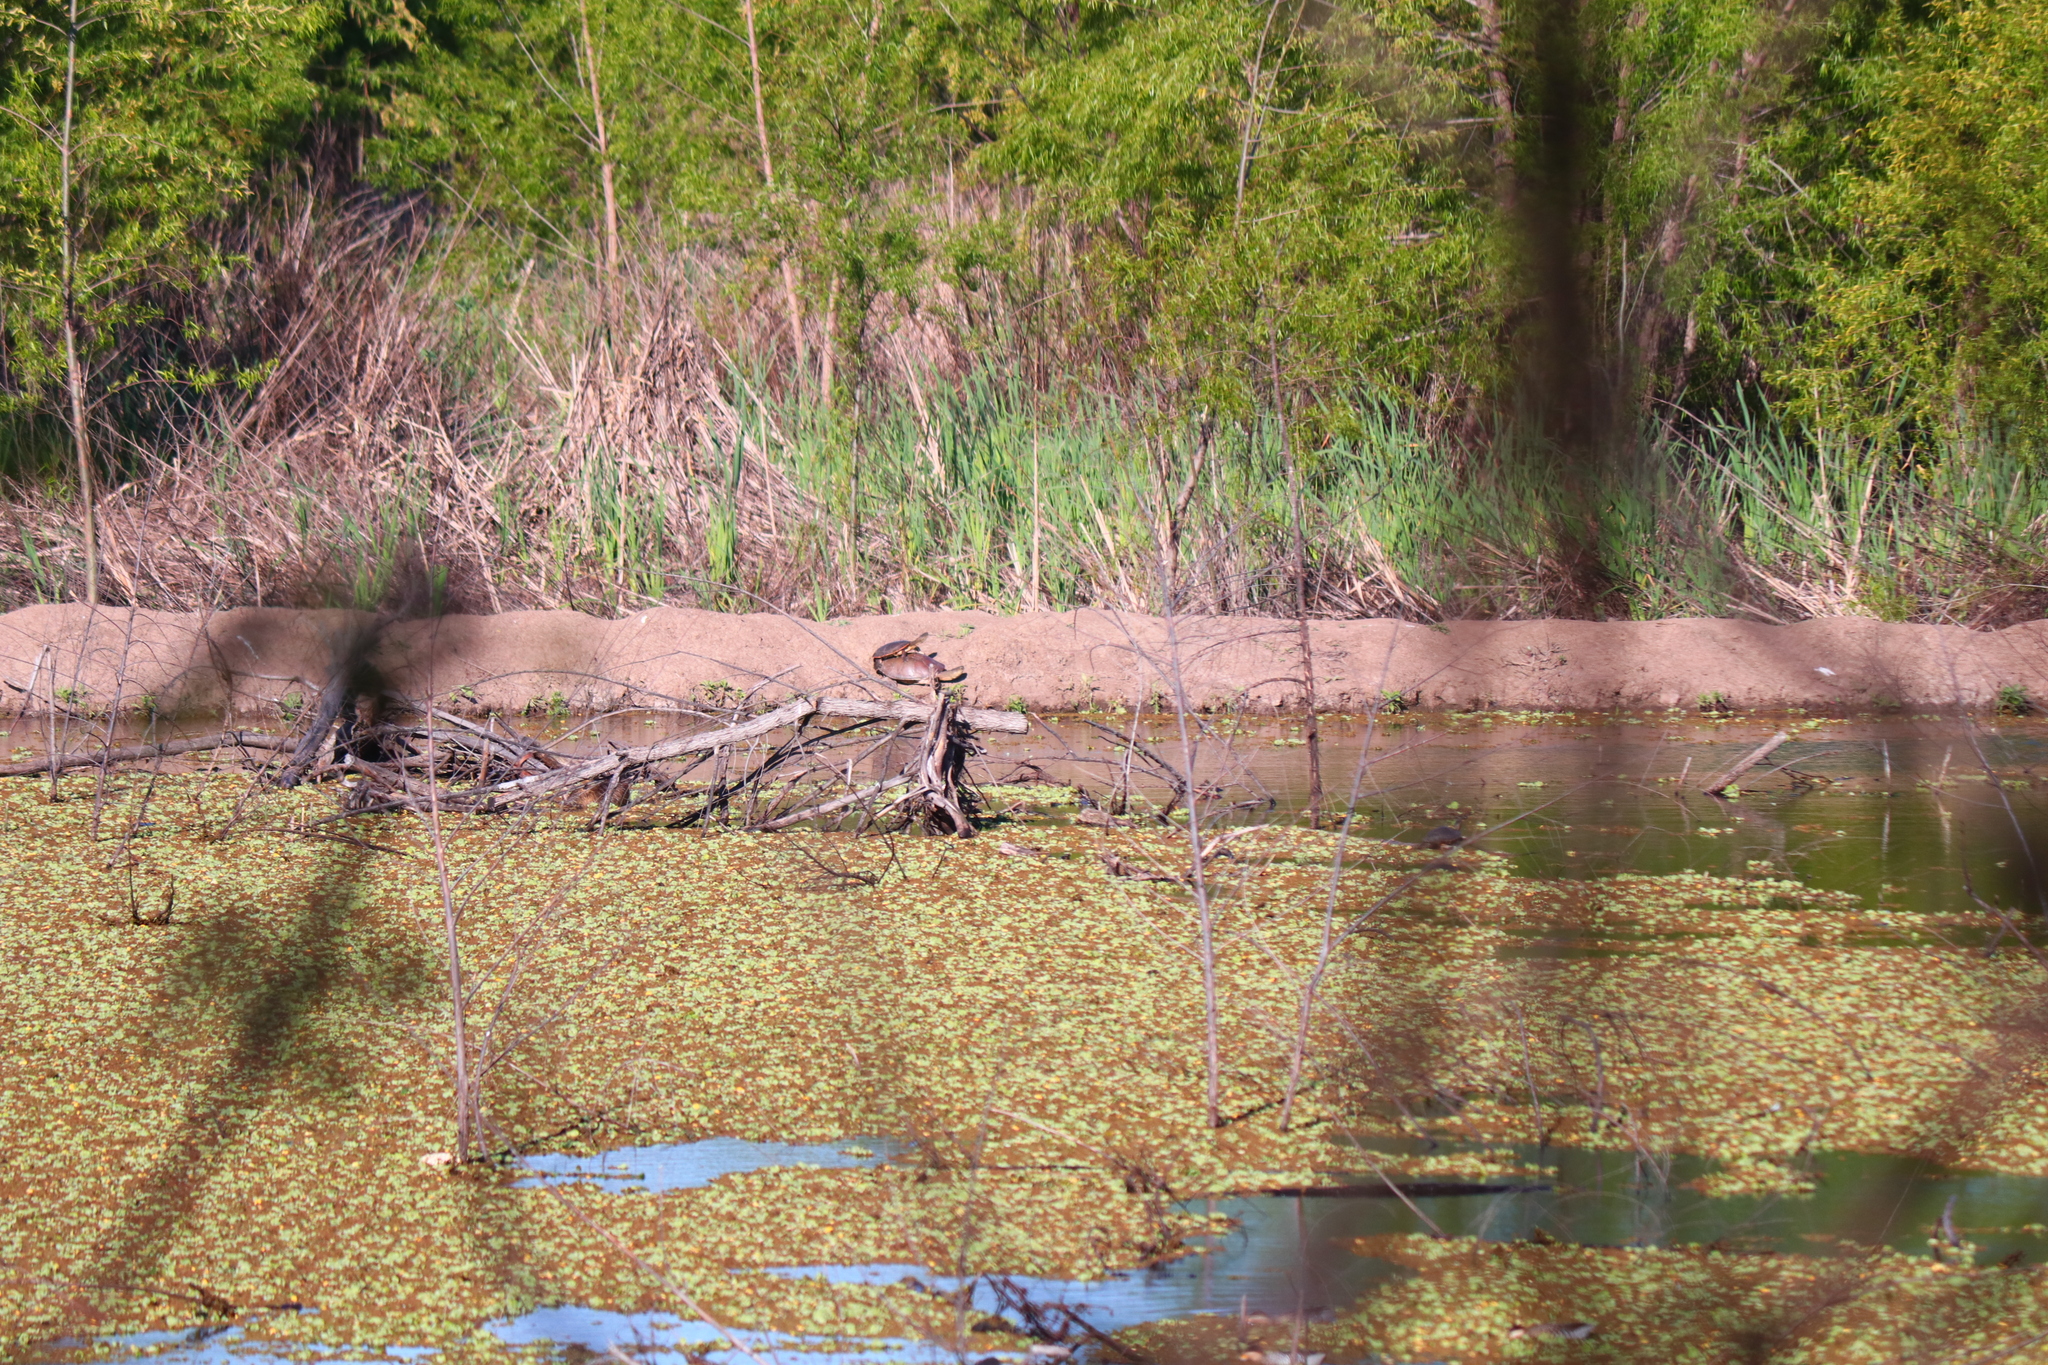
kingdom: Animalia
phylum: Chordata
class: Testudines
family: Chelidae
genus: Phrynops
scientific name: Phrynops hilarii
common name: Side-necked turtle of saint hillaire
